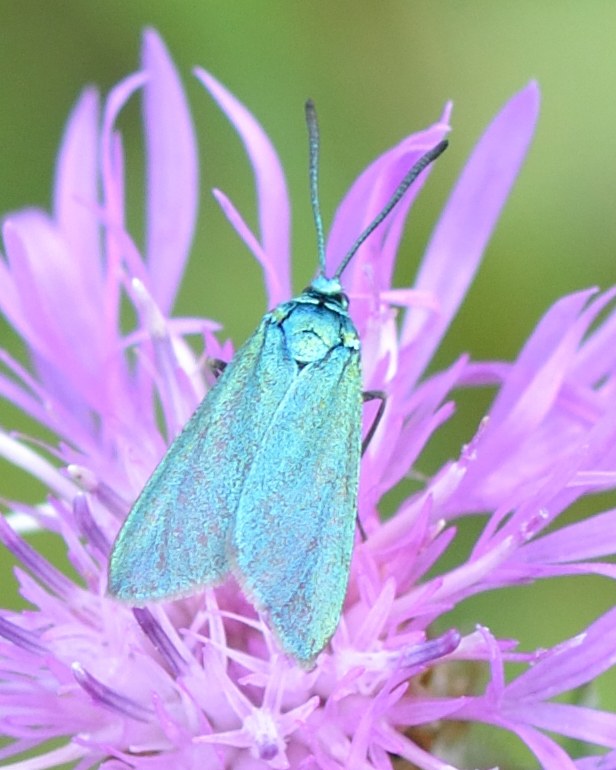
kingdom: Animalia
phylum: Arthropoda
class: Insecta
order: Lepidoptera
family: Zygaenidae
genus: Adscita
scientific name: Adscita statices
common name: Forester
